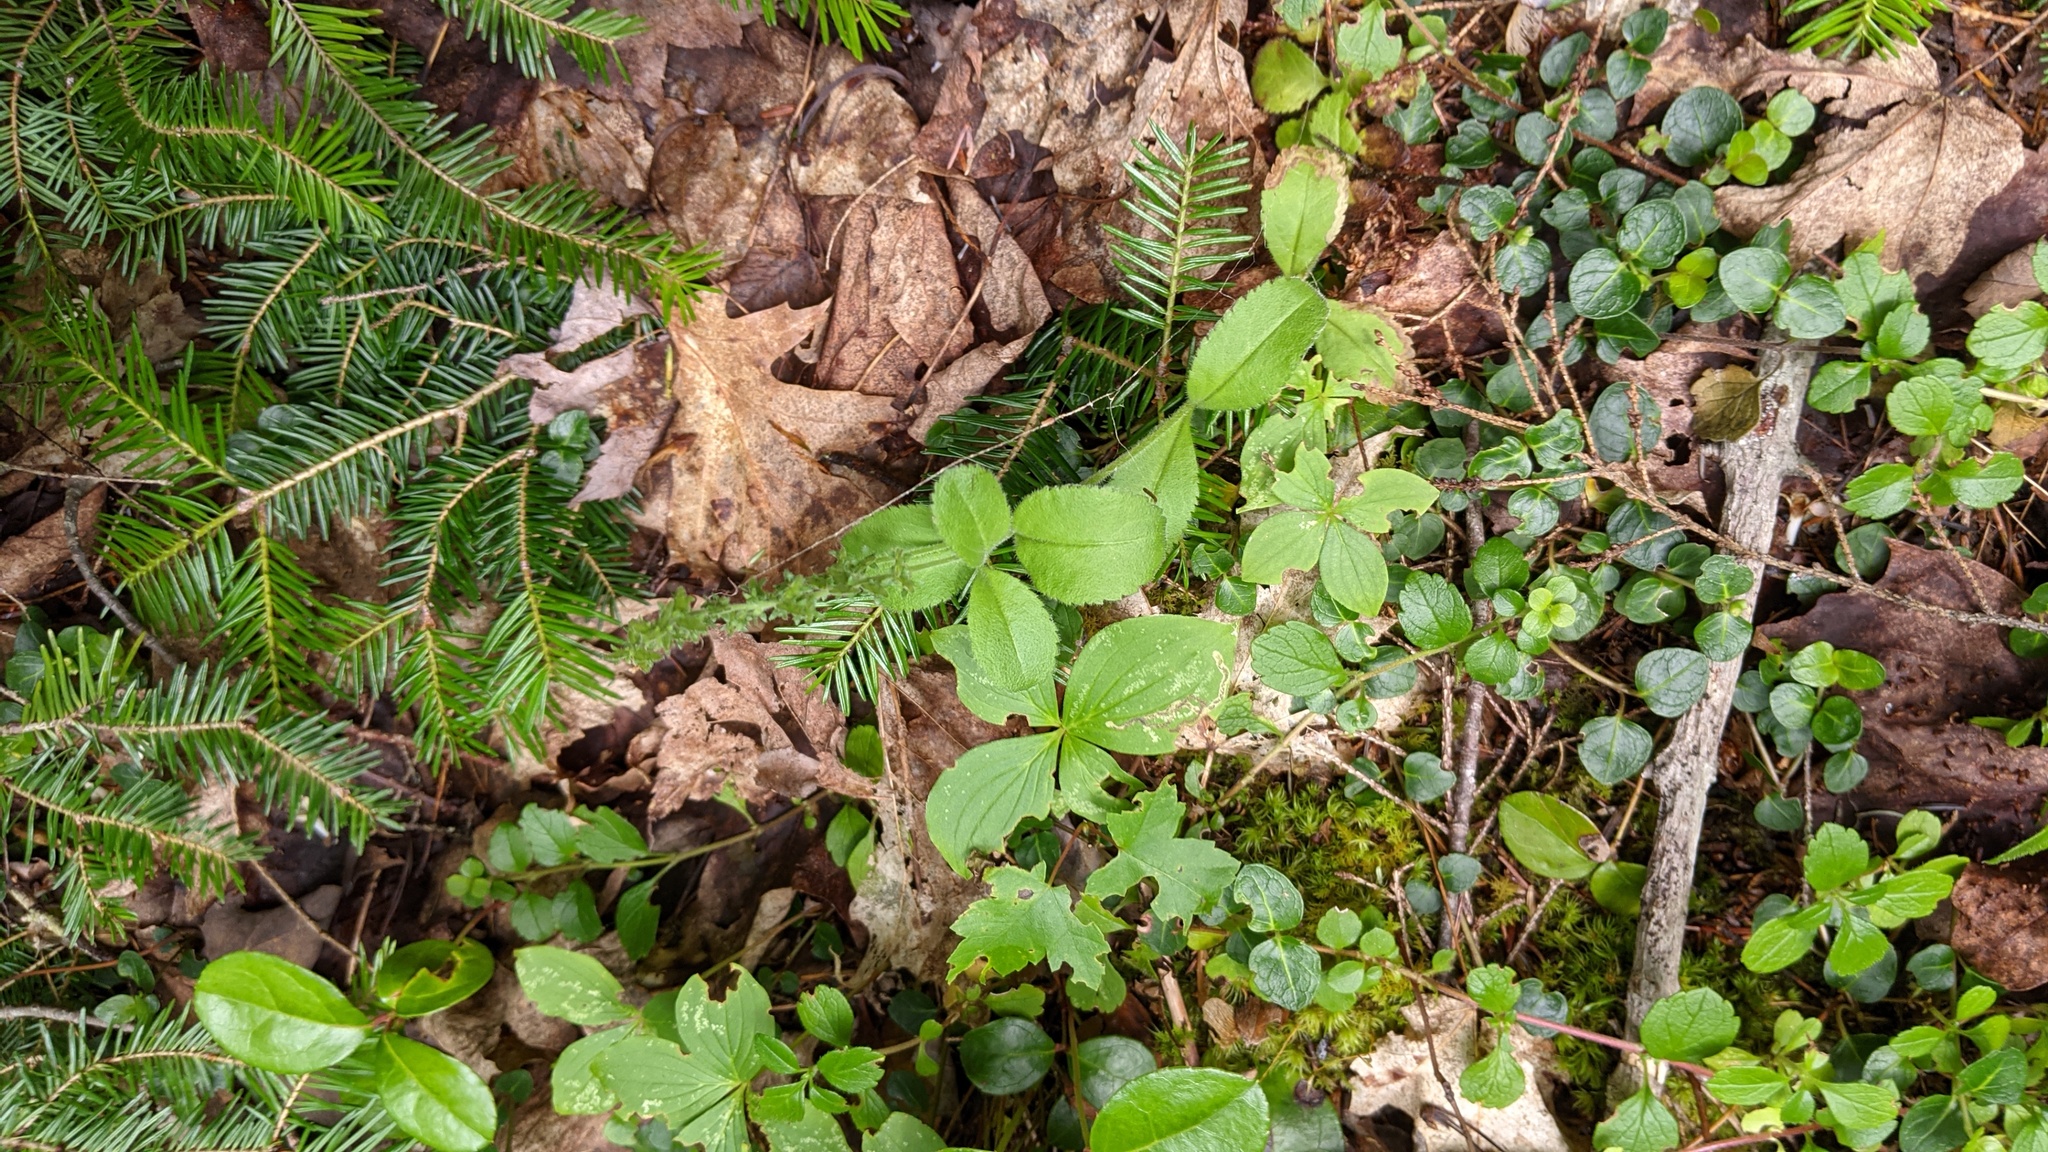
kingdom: Plantae
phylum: Tracheophyta
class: Magnoliopsida
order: Lamiales
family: Plantaginaceae
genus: Veronica
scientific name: Veronica officinalis
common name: Common speedwell
